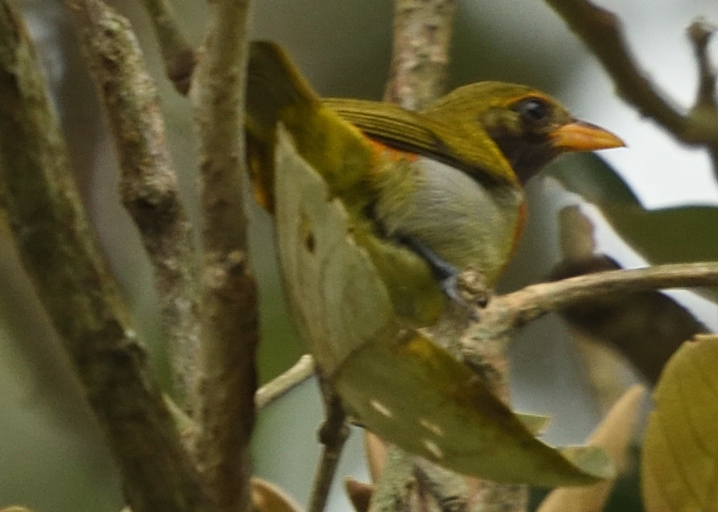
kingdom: Animalia
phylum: Chordata
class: Aves
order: Passeriformes
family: Thraupidae
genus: Hemithraupis
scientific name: Hemithraupis guira
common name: Guira tanager
